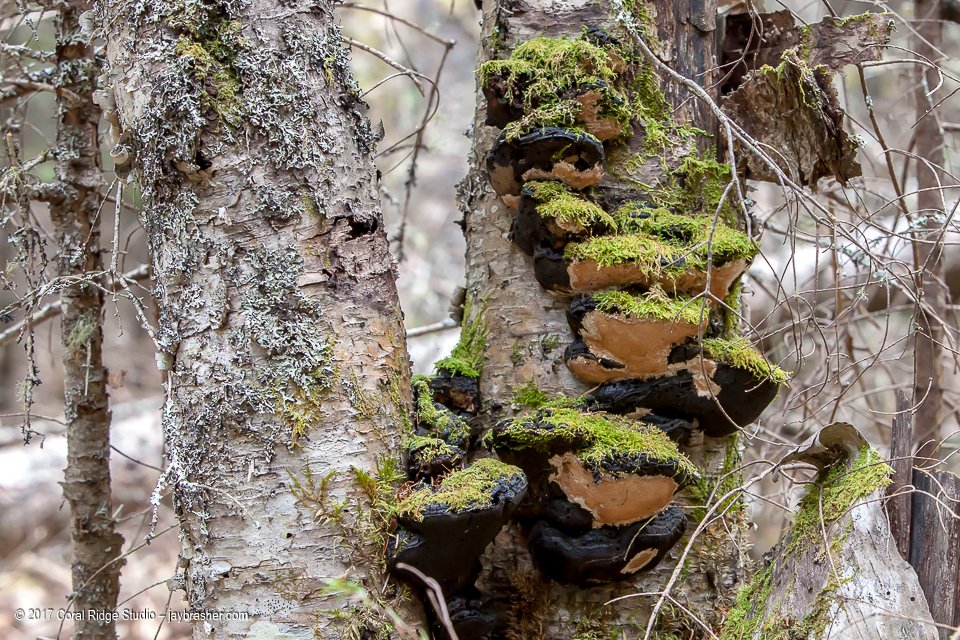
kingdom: Fungi
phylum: Basidiomycota
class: Agaricomycetes
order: Hymenochaetales
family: Hymenochaetaceae
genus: Phellinus
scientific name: Phellinus lundellii
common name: Birch bristle bracket
